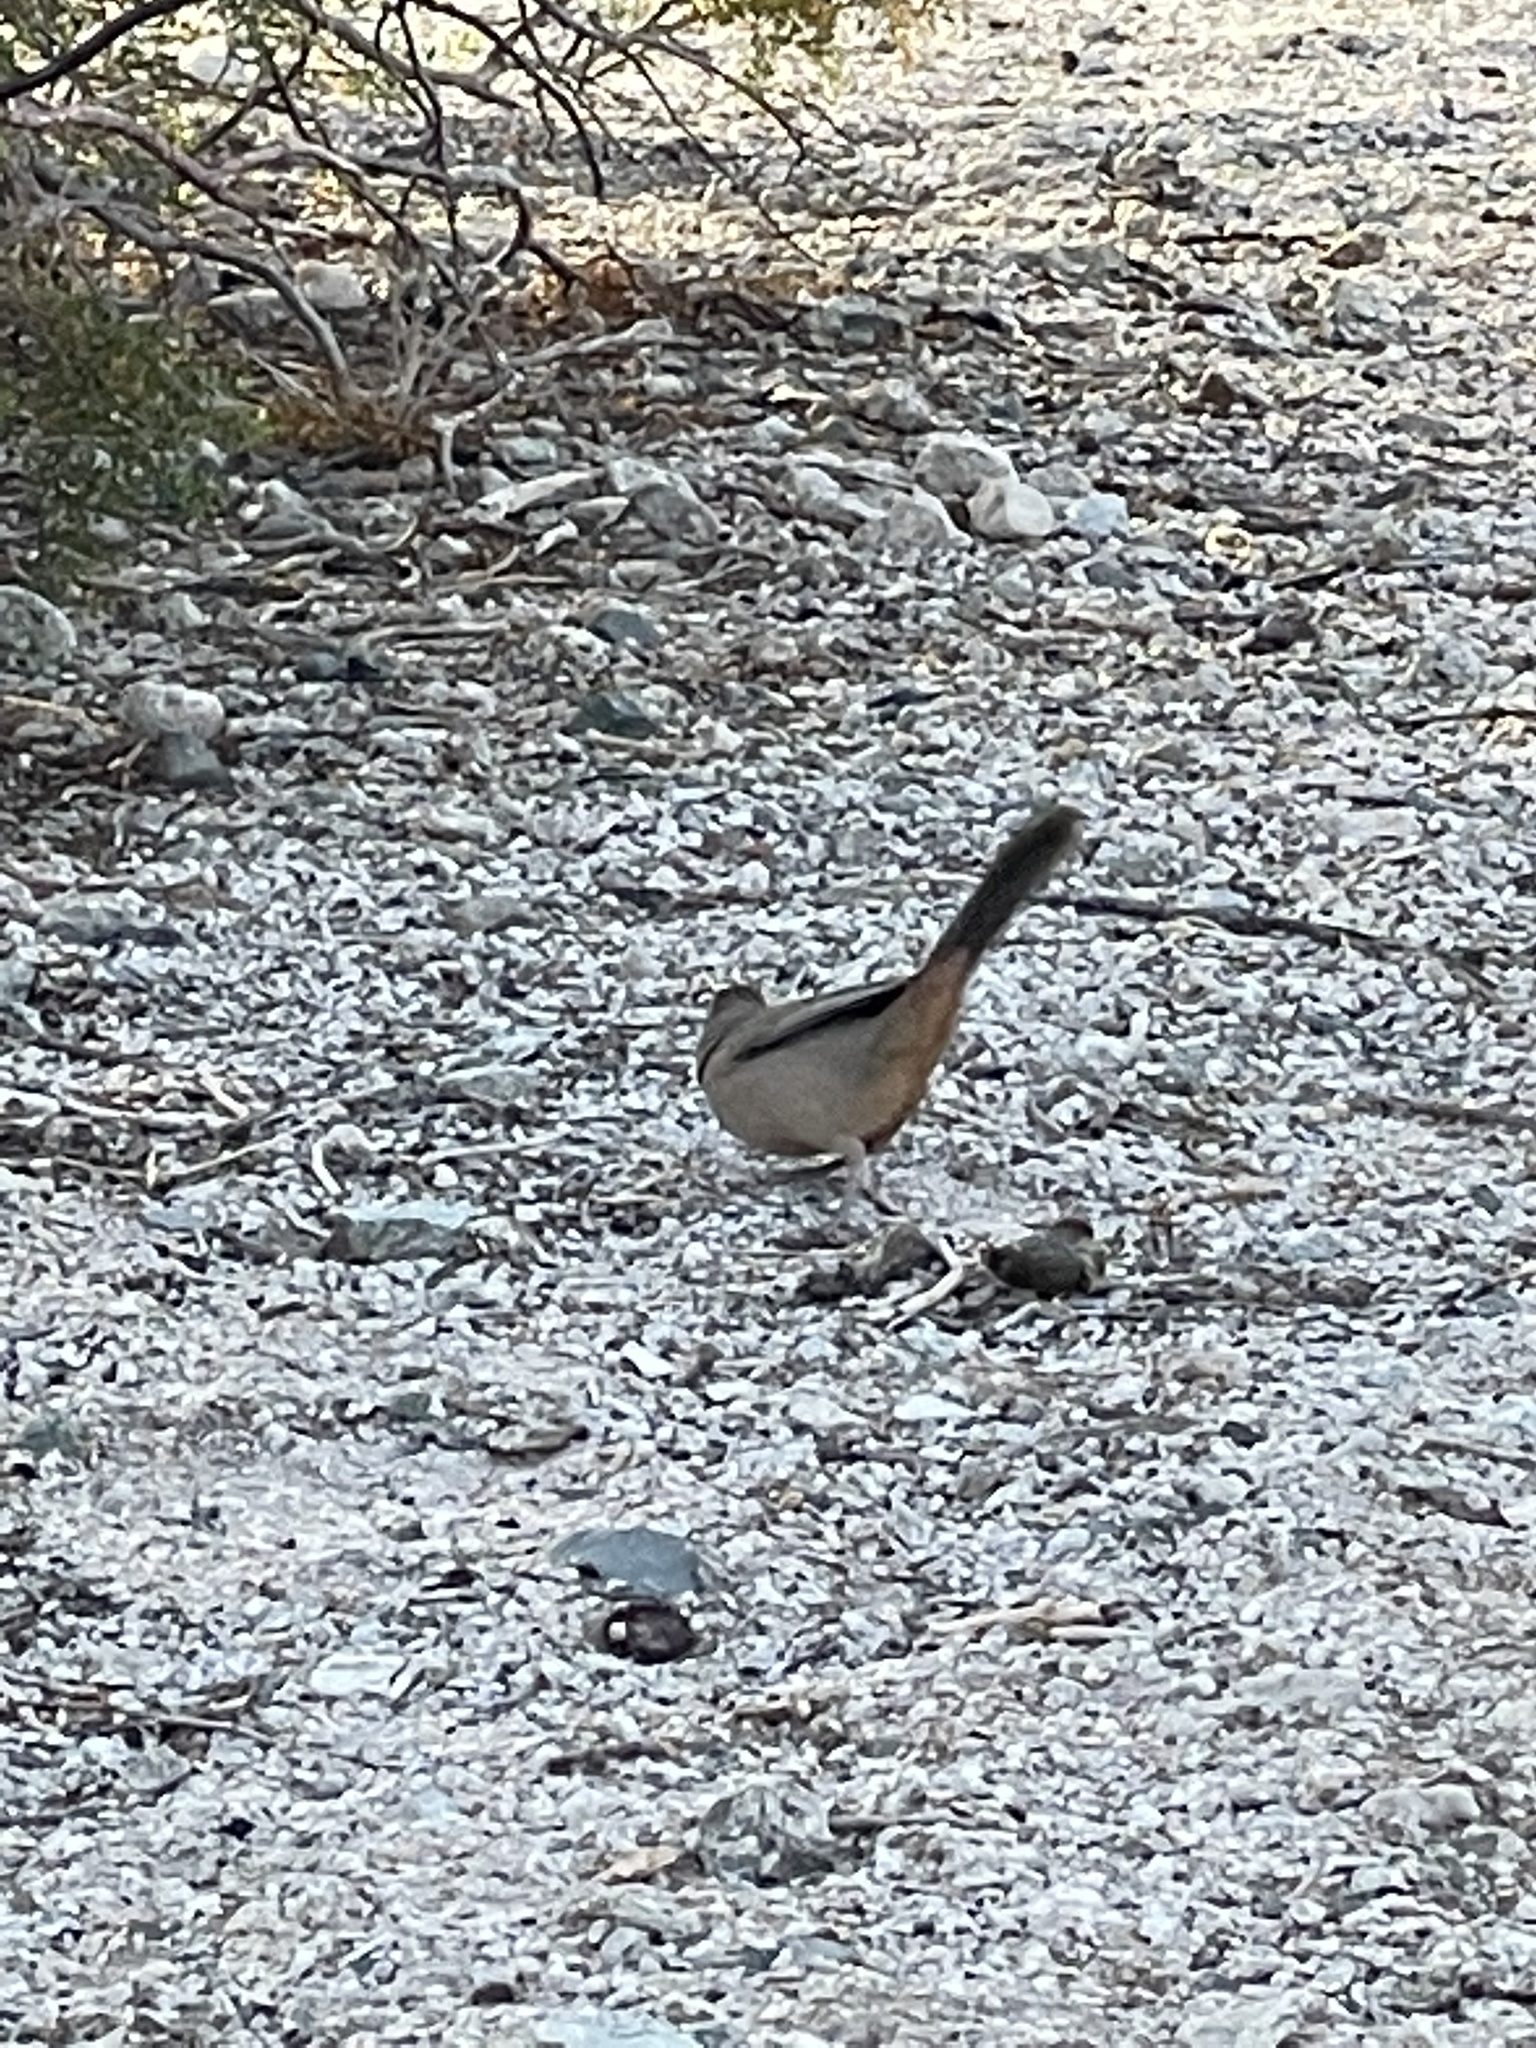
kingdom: Animalia
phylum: Chordata
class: Aves
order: Passeriformes
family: Passerellidae
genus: Melozone
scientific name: Melozone aberti
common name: Abert's towhee
